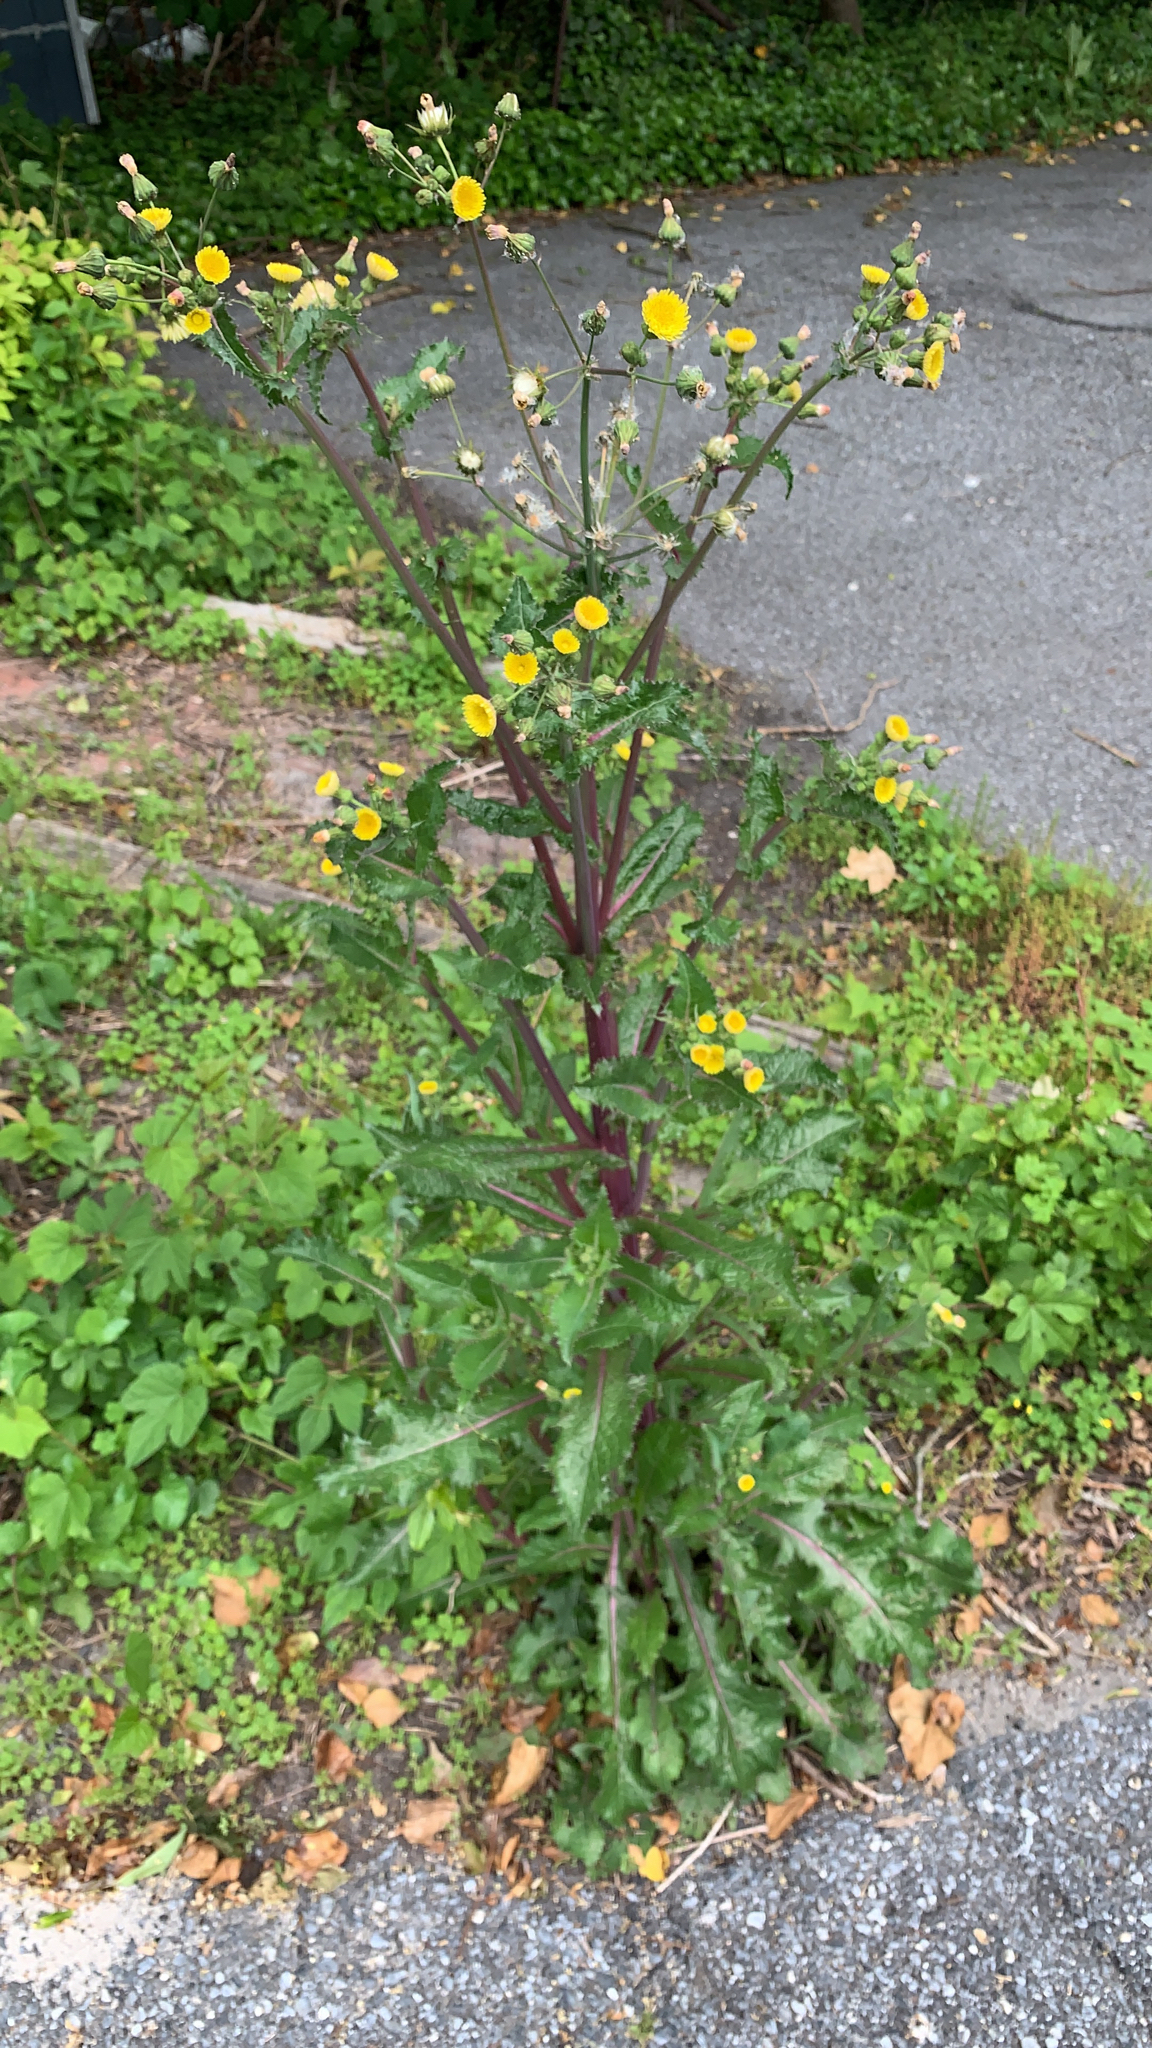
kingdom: Plantae
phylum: Tracheophyta
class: Magnoliopsida
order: Asterales
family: Asteraceae
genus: Sonchus
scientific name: Sonchus asper
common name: Prickly sow-thistle
